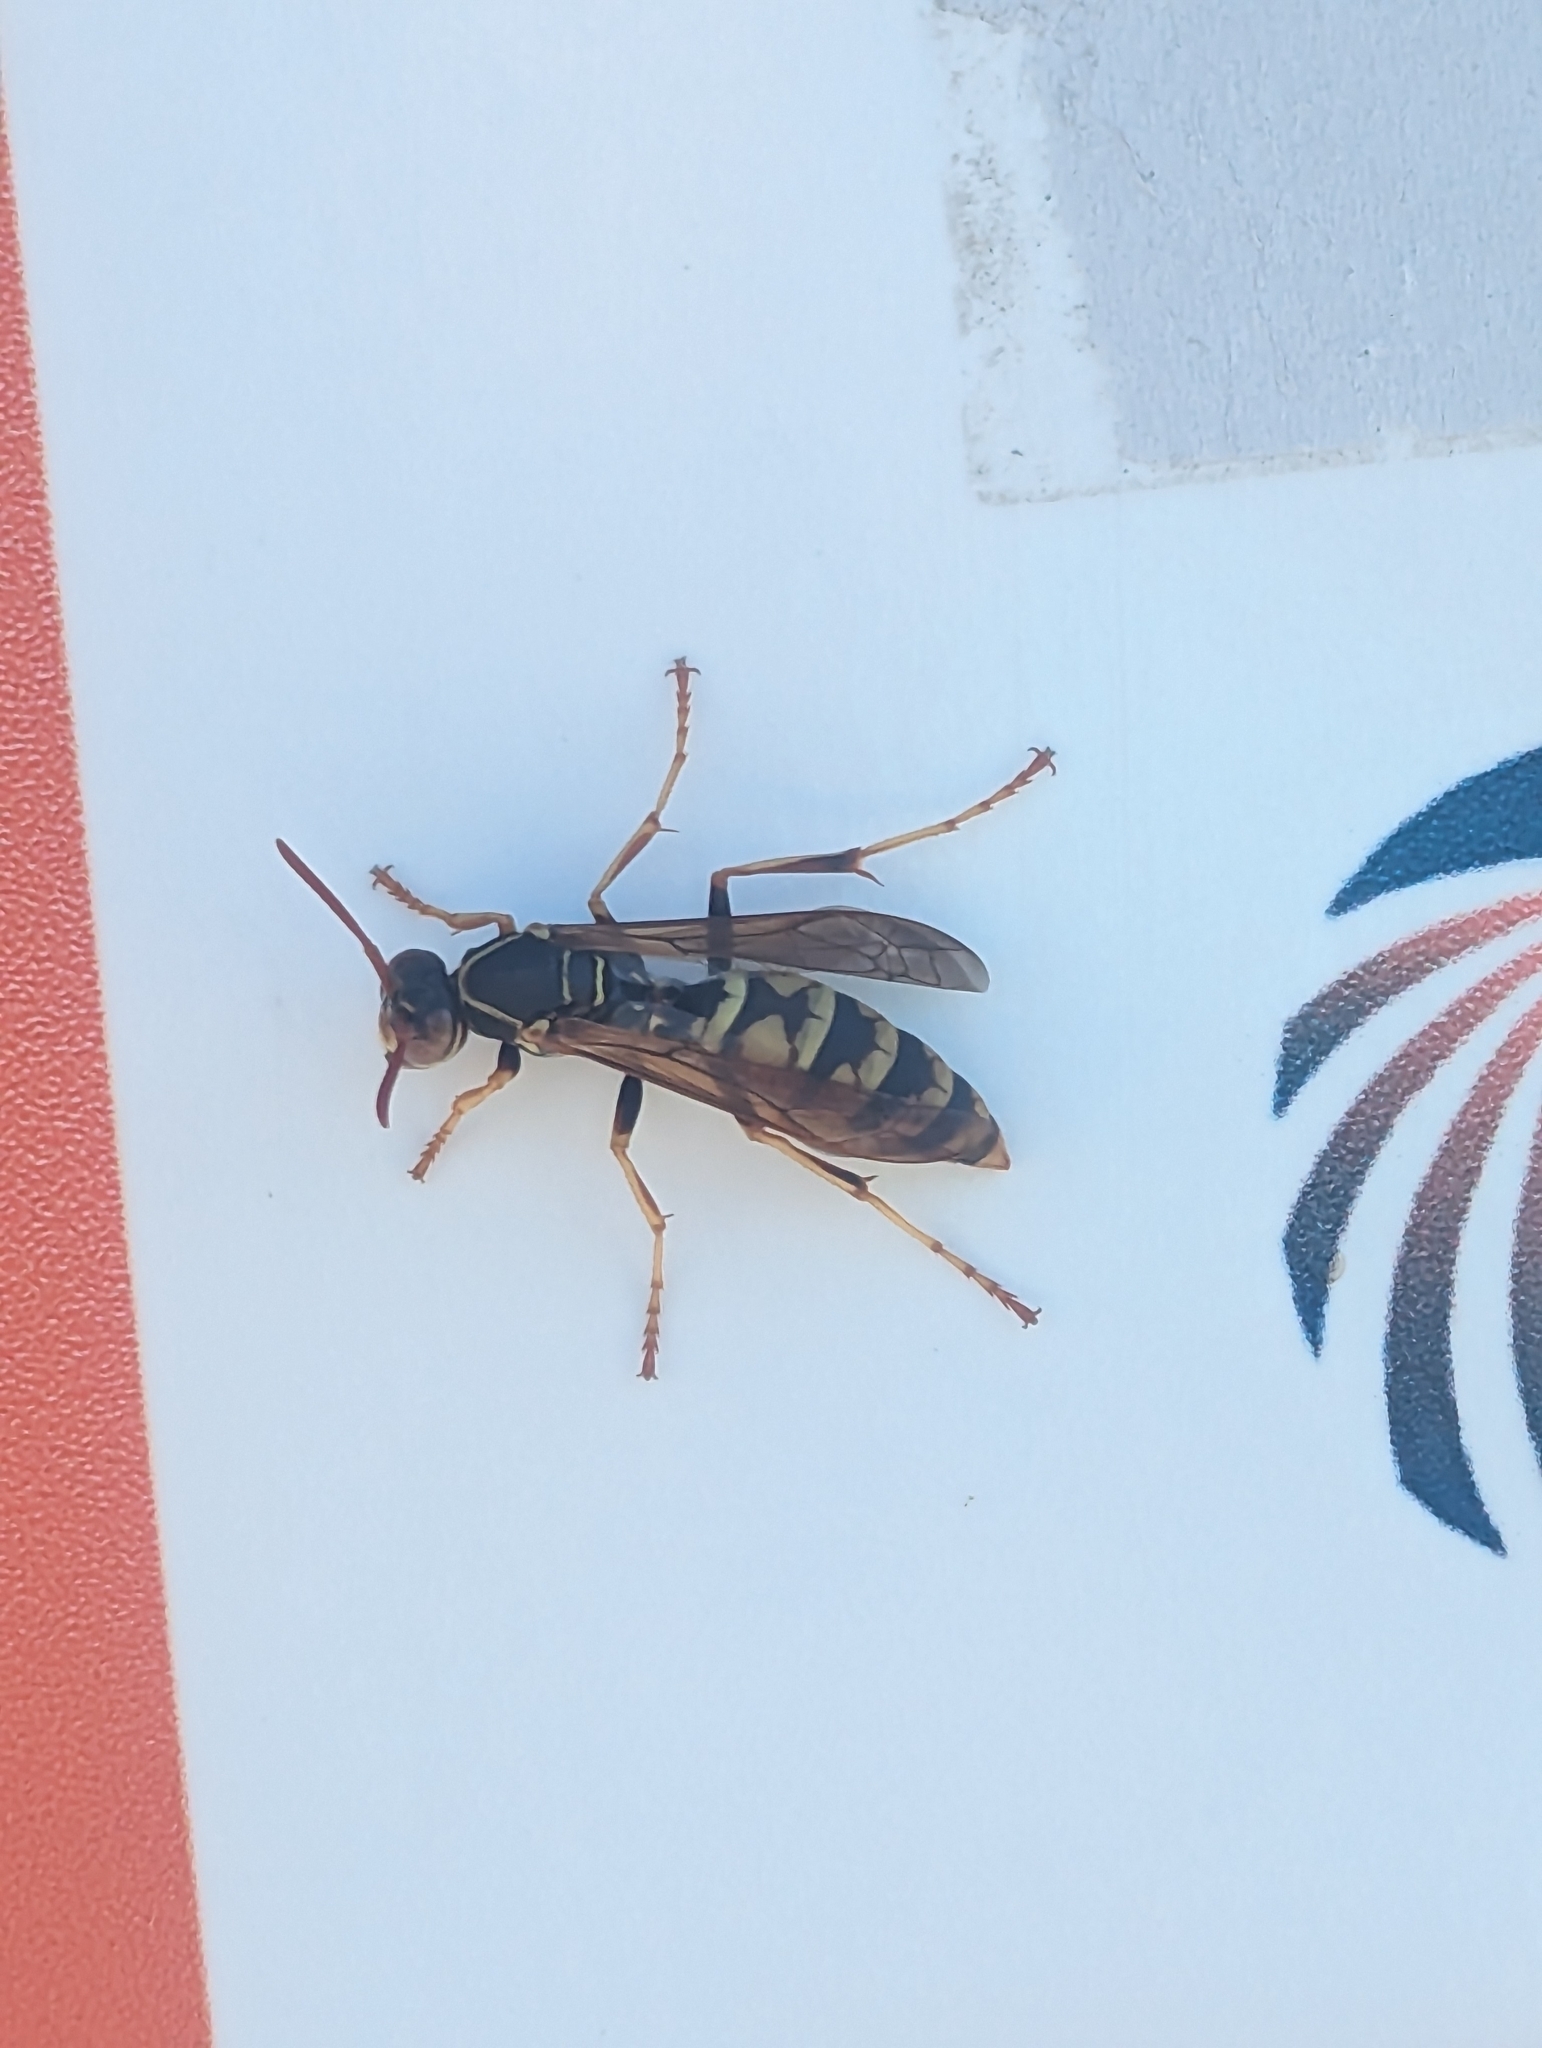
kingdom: Animalia
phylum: Arthropoda
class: Insecta
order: Hymenoptera
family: Eumenidae
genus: Polistes
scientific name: Polistes aurifer
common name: Paper wasp
